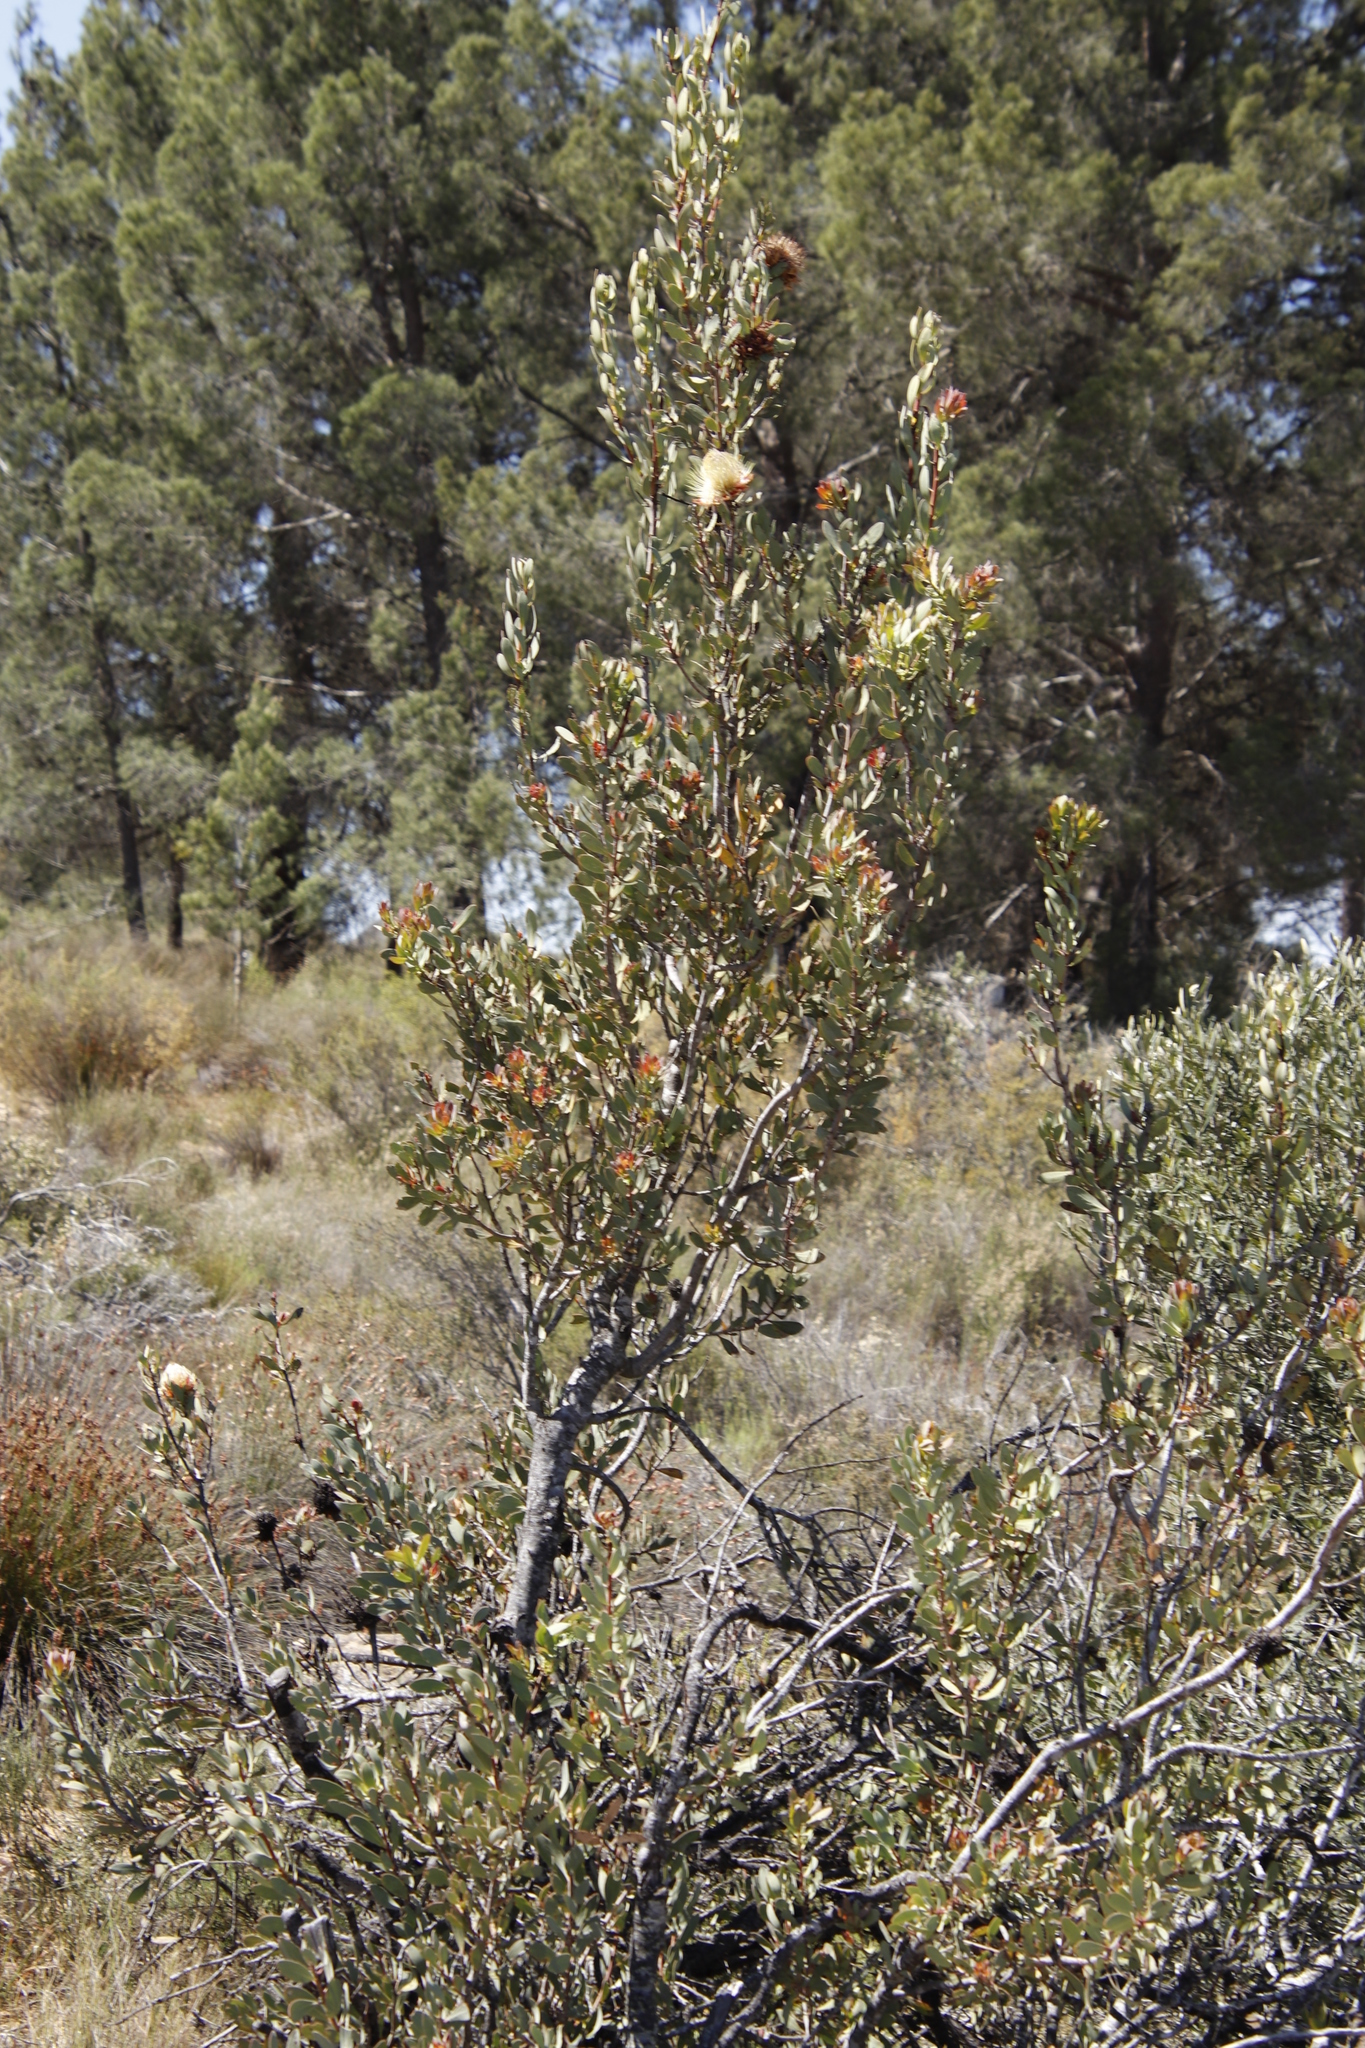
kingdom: Plantae
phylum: Tracheophyta
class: Magnoliopsida
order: Proteales
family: Proteaceae
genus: Protea
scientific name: Protea glabra
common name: Chestnut sugarbush
